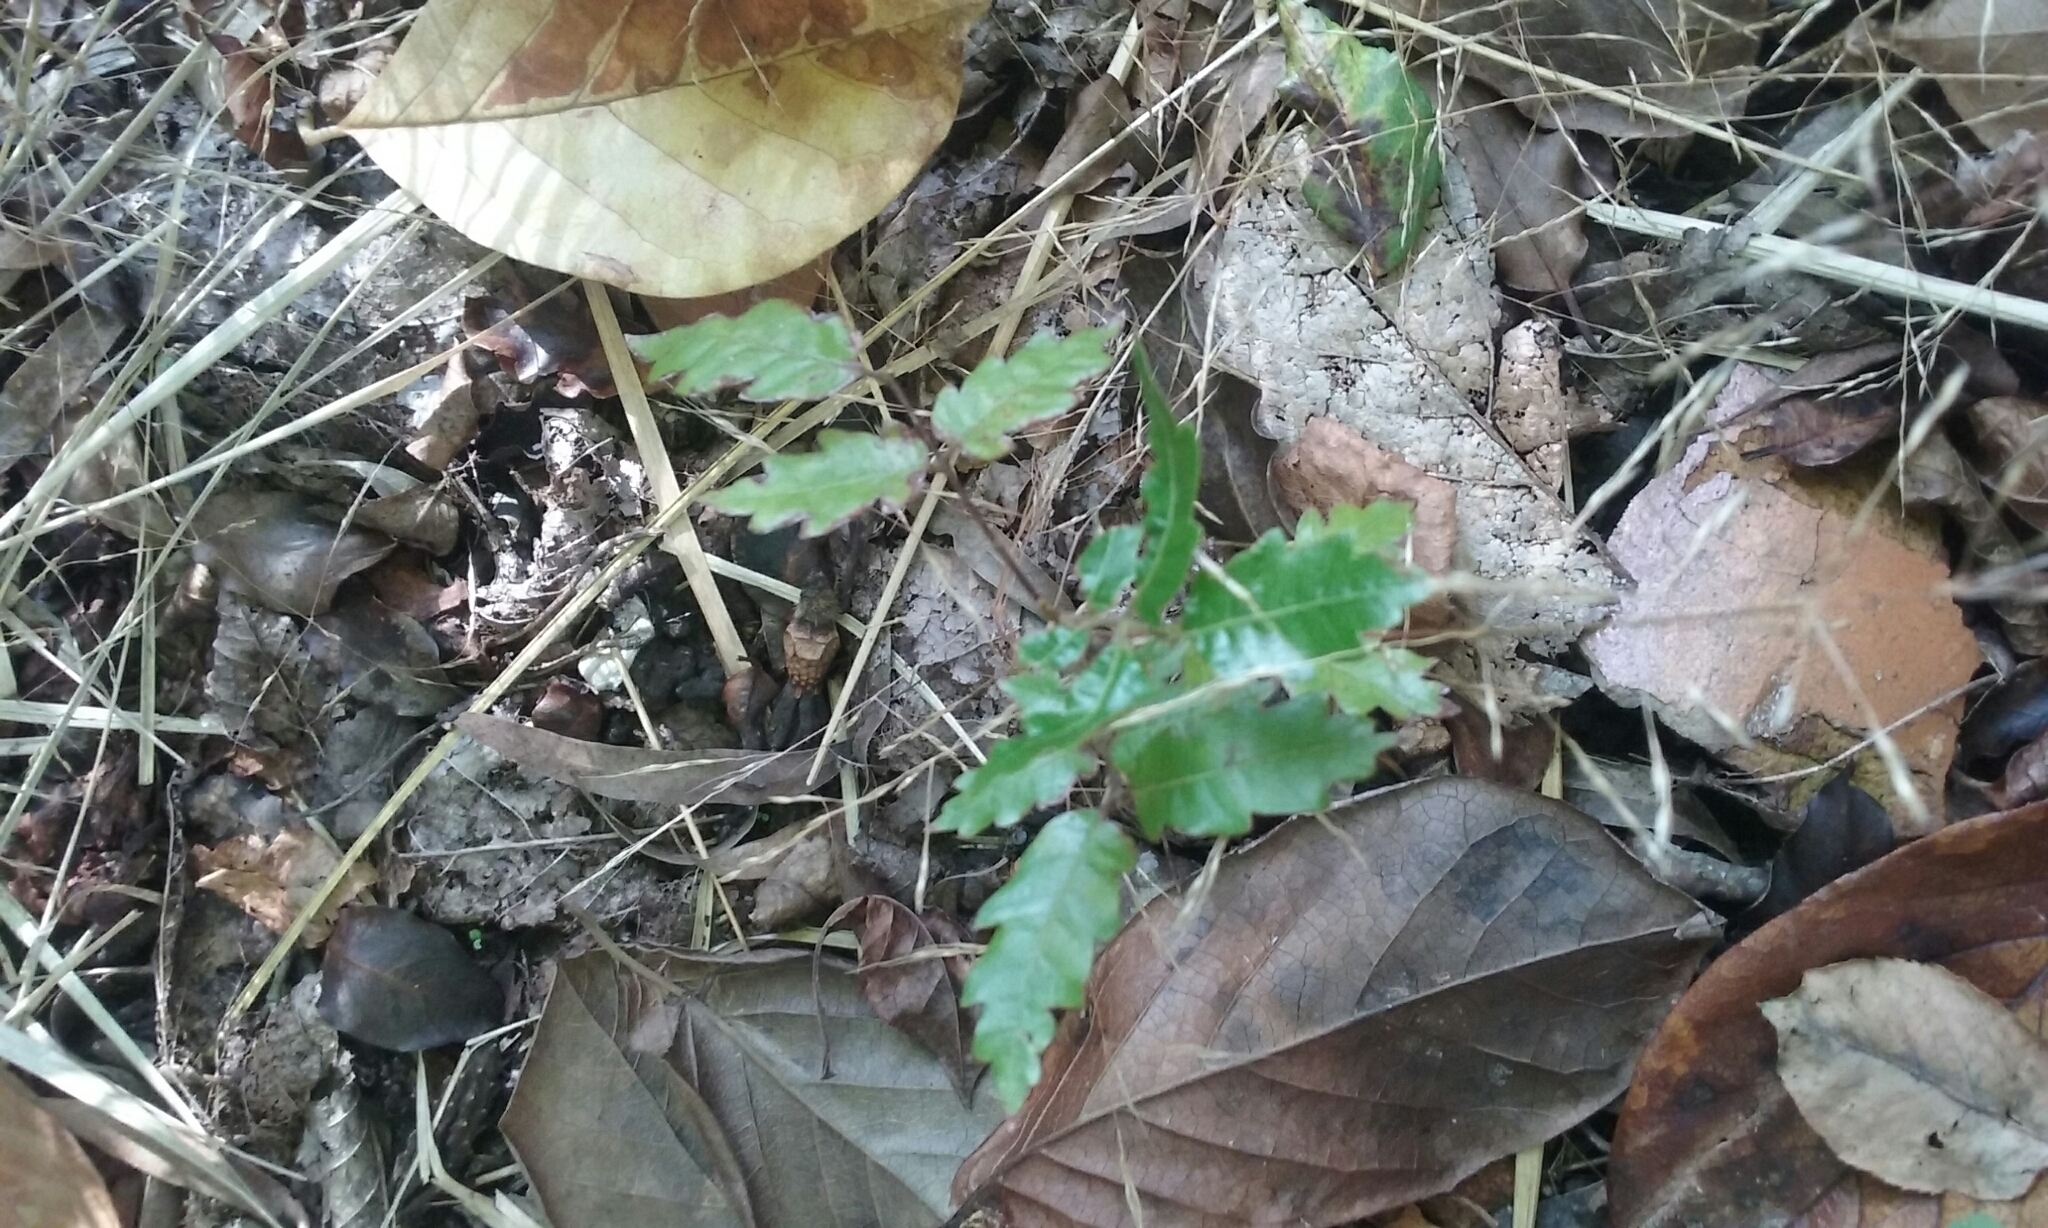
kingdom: Plantae
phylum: Tracheophyta
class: Magnoliopsida
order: Sapindales
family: Sapindaceae
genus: Alectryon
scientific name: Alectryon excelsus
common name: Three kings titoki
